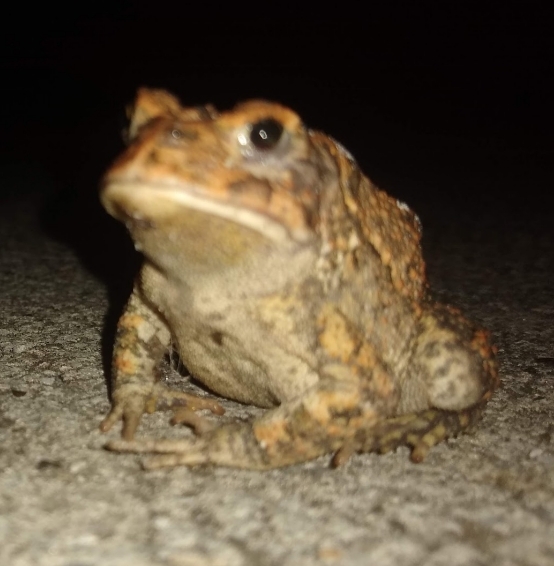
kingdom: Animalia
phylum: Chordata
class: Amphibia
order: Anura
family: Bufonidae
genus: Anaxyrus
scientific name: Anaxyrus terrestris
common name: Southern toad
